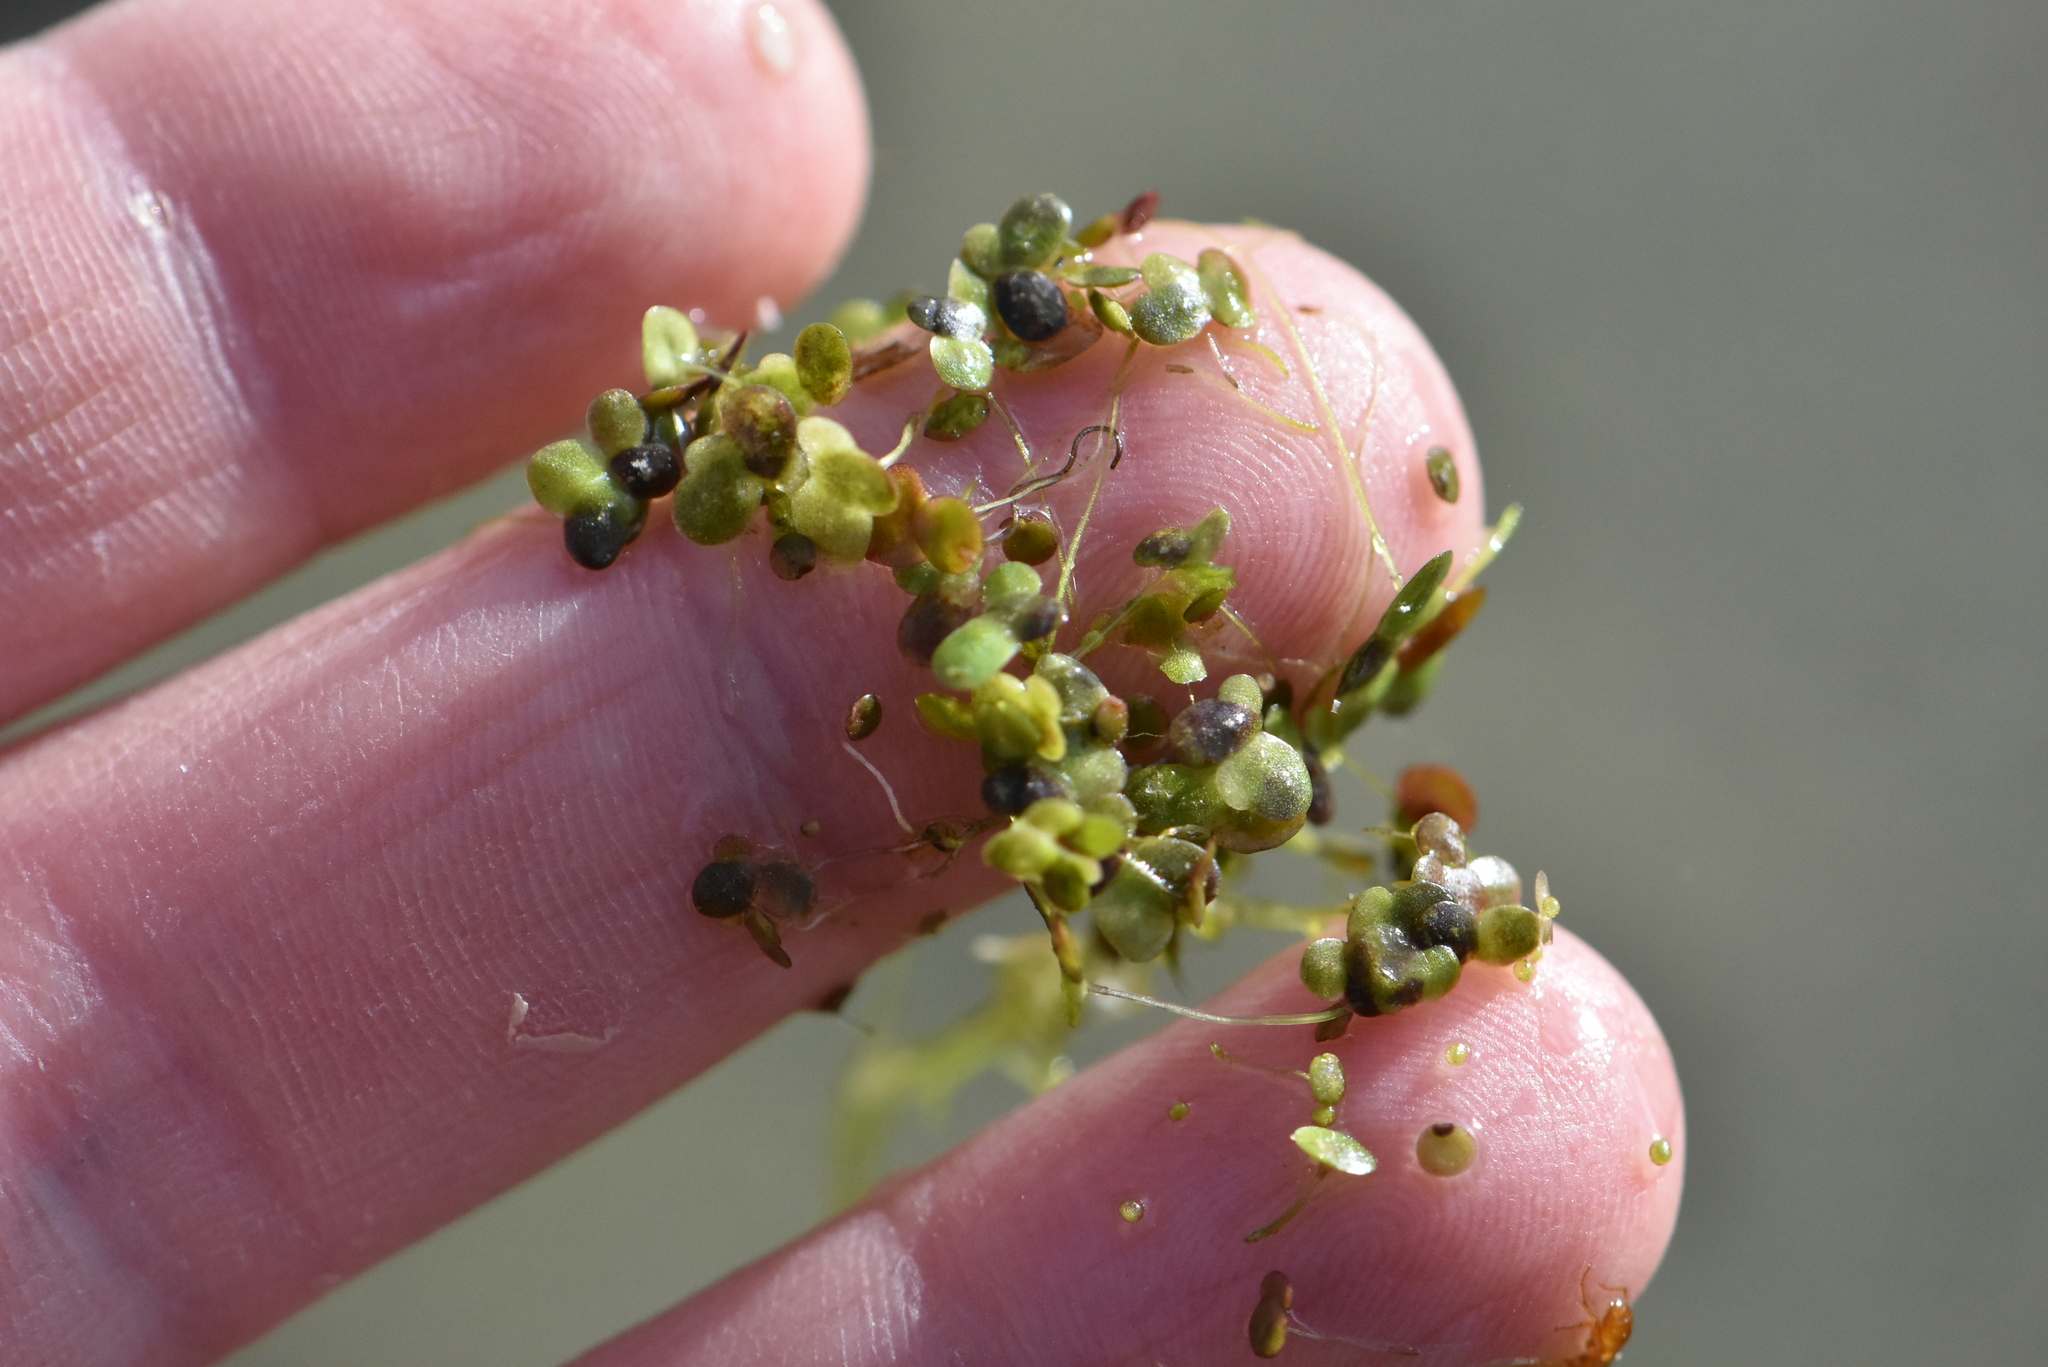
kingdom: Plantae
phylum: Tracheophyta
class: Liliopsida
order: Alismatales
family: Araceae
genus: Lemna
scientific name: Lemna minor
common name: Common duckweed
